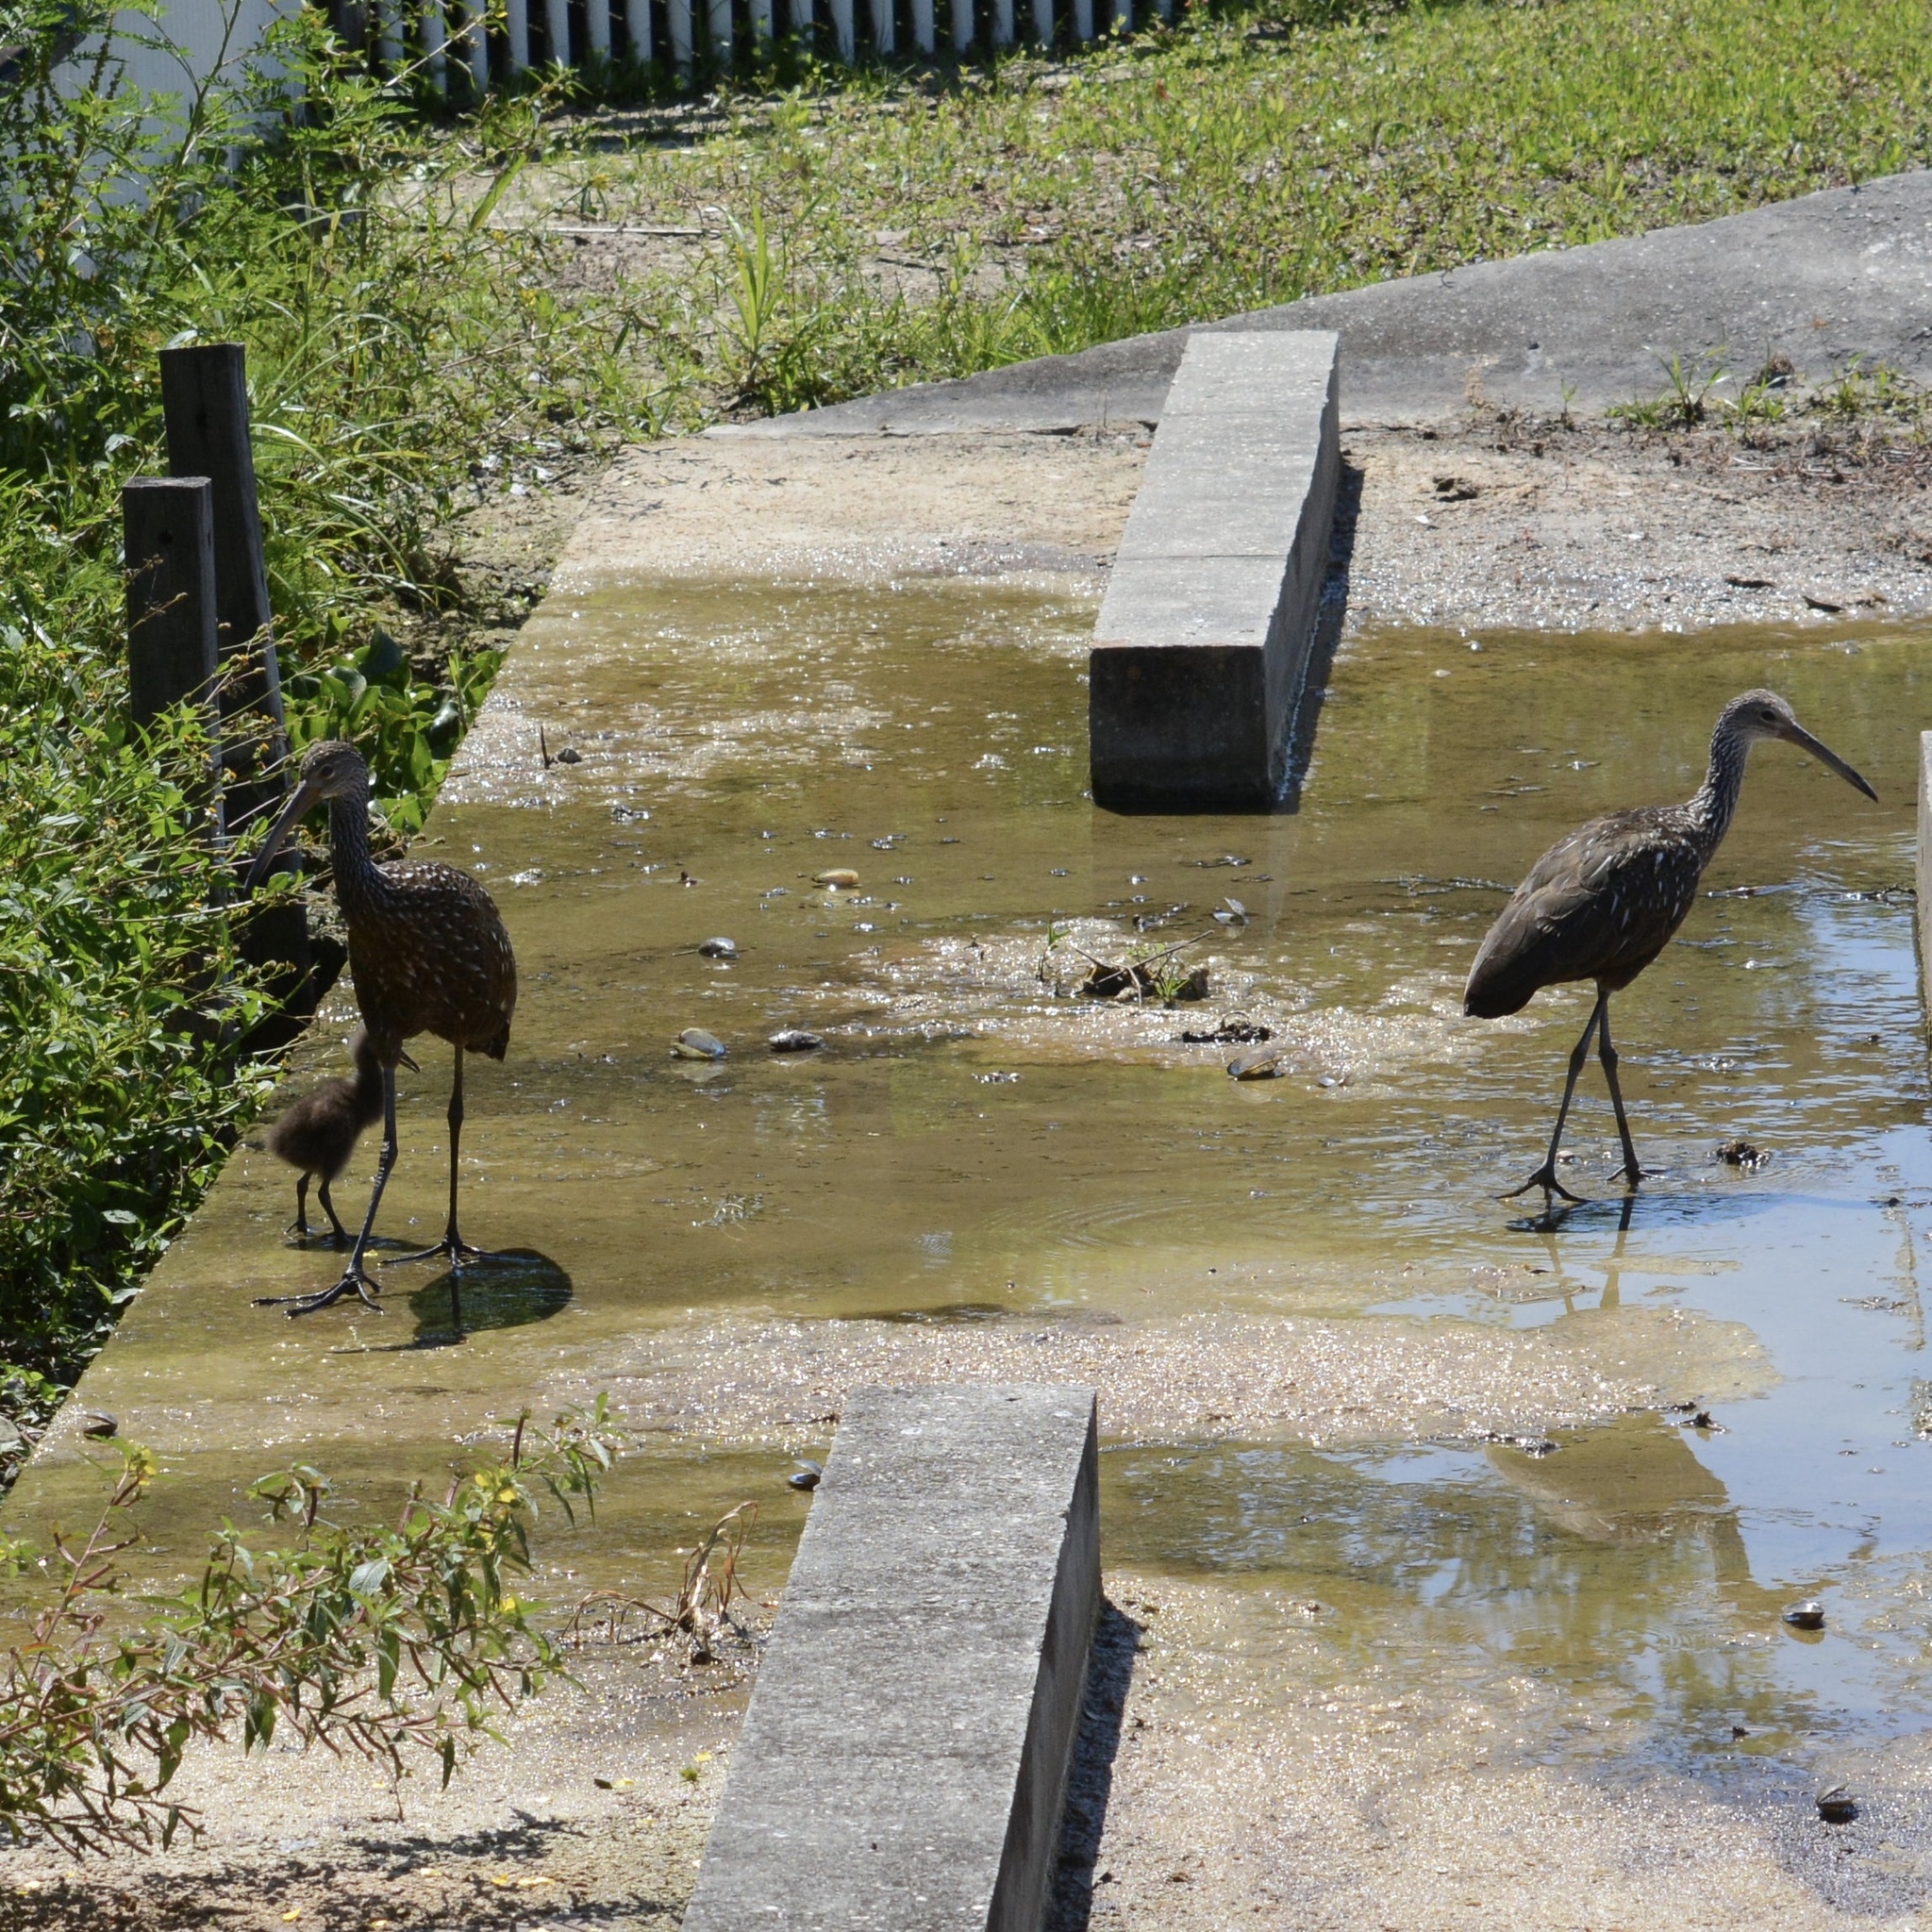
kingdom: Animalia
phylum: Chordata
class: Aves
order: Gruiformes
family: Aramidae
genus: Aramus
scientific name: Aramus guarauna
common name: Limpkin
